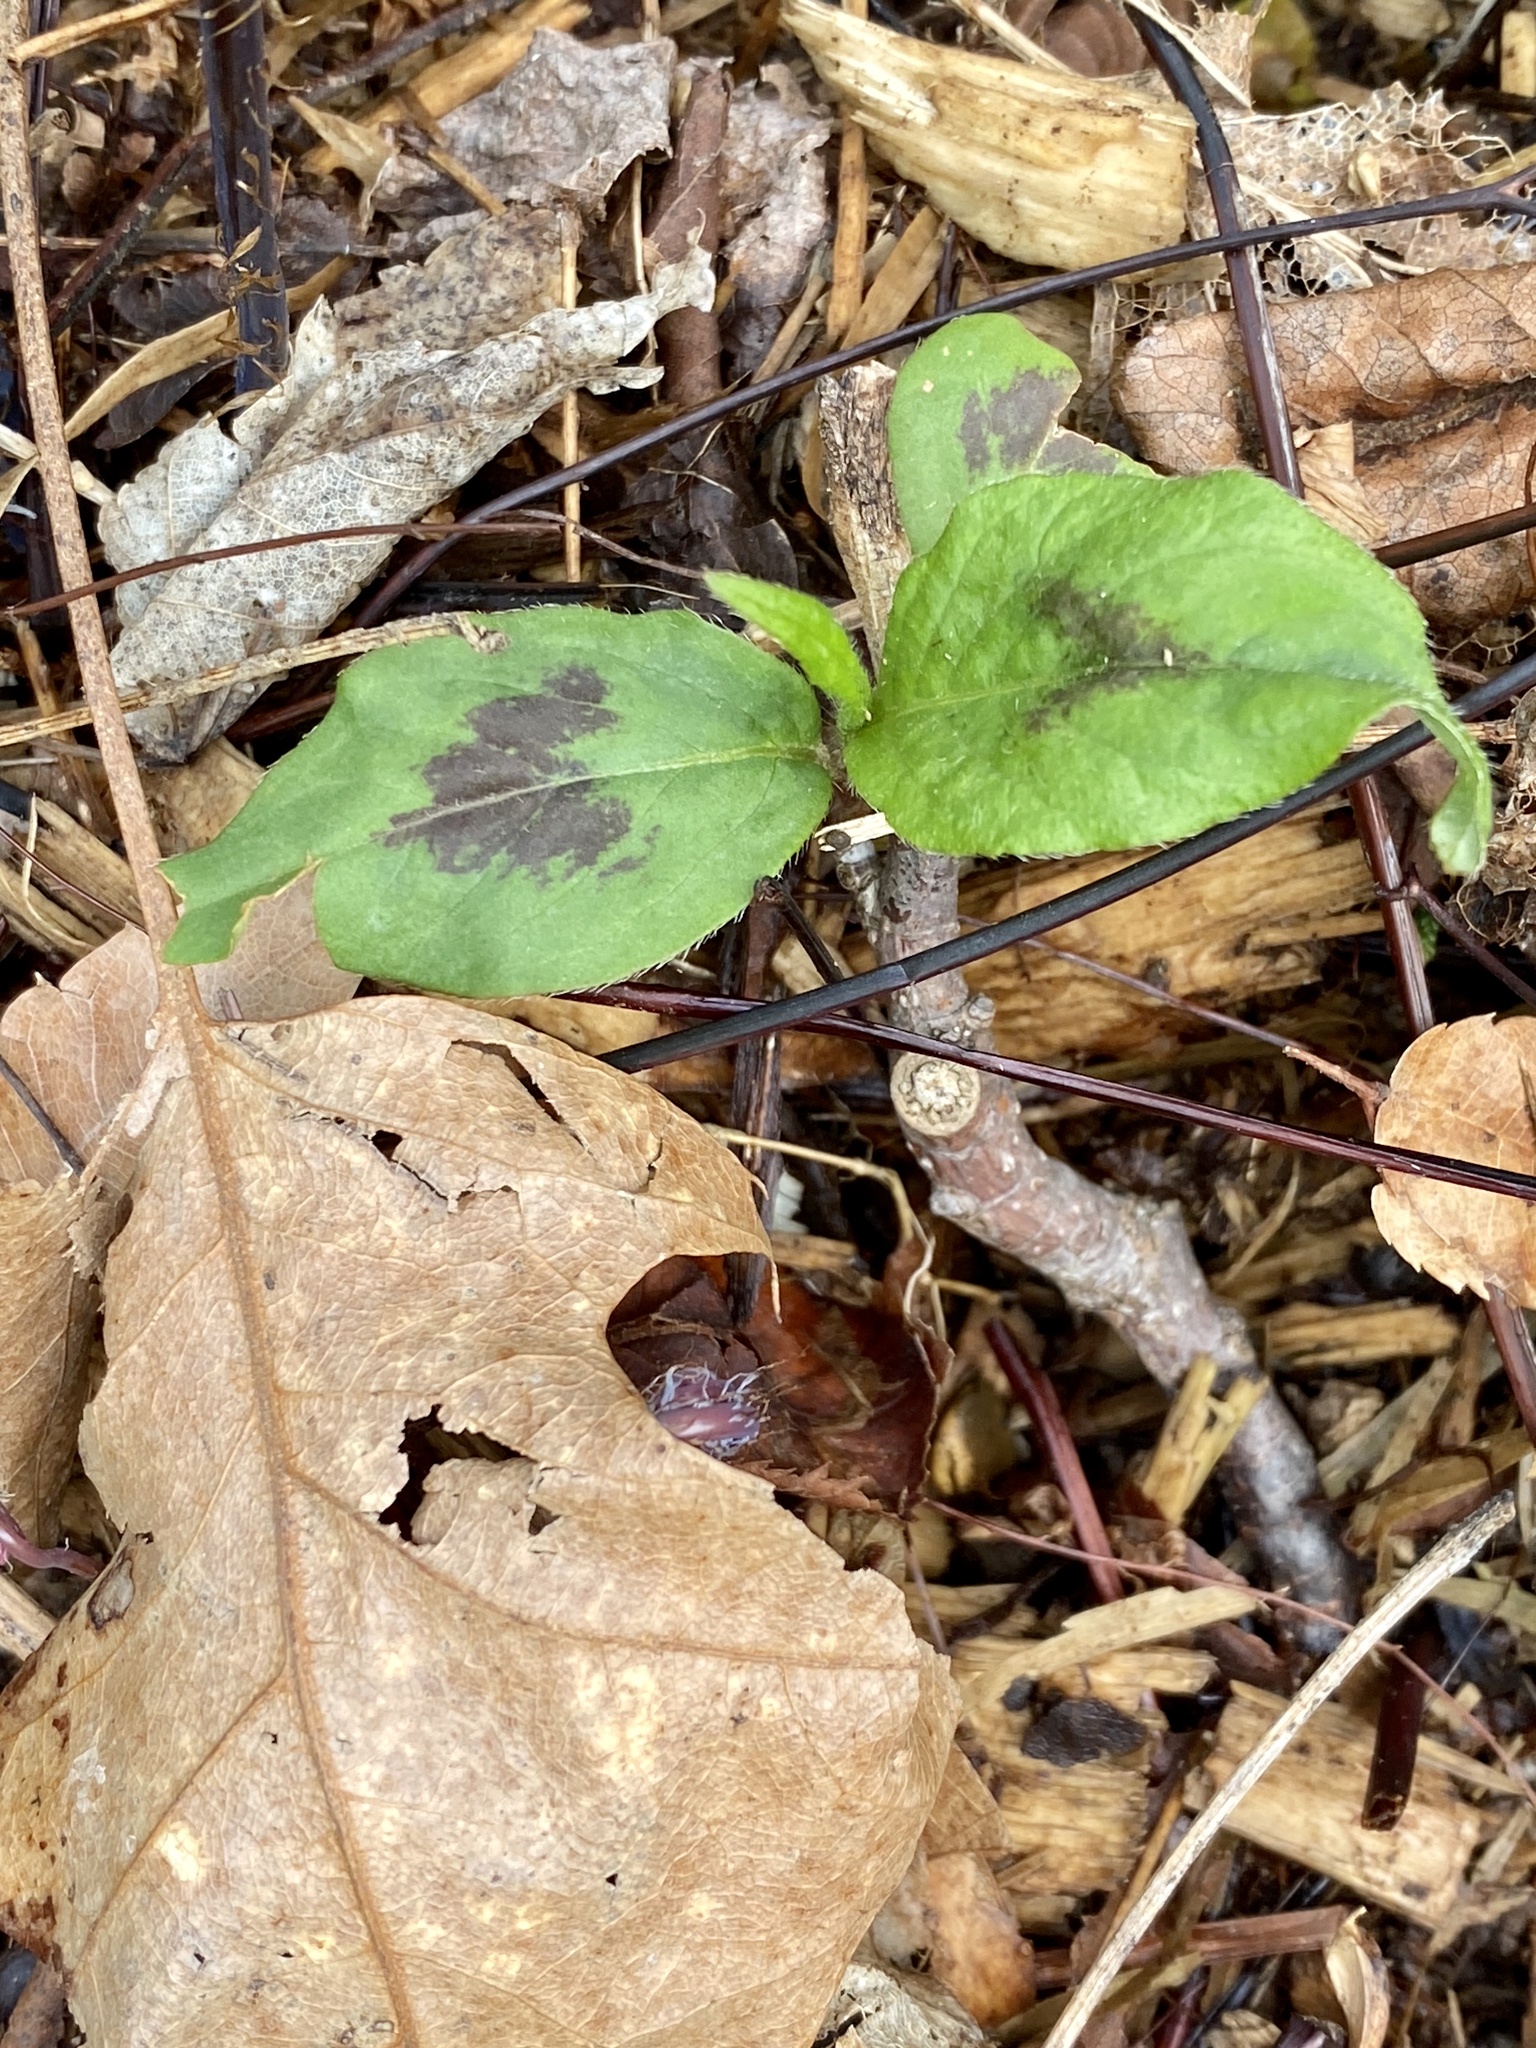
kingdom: Plantae
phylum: Tracheophyta
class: Magnoliopsida
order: Caryophyllales
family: Polygonaceae
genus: Persicaria
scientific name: Persicaria virginiana
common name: Jumpseed
